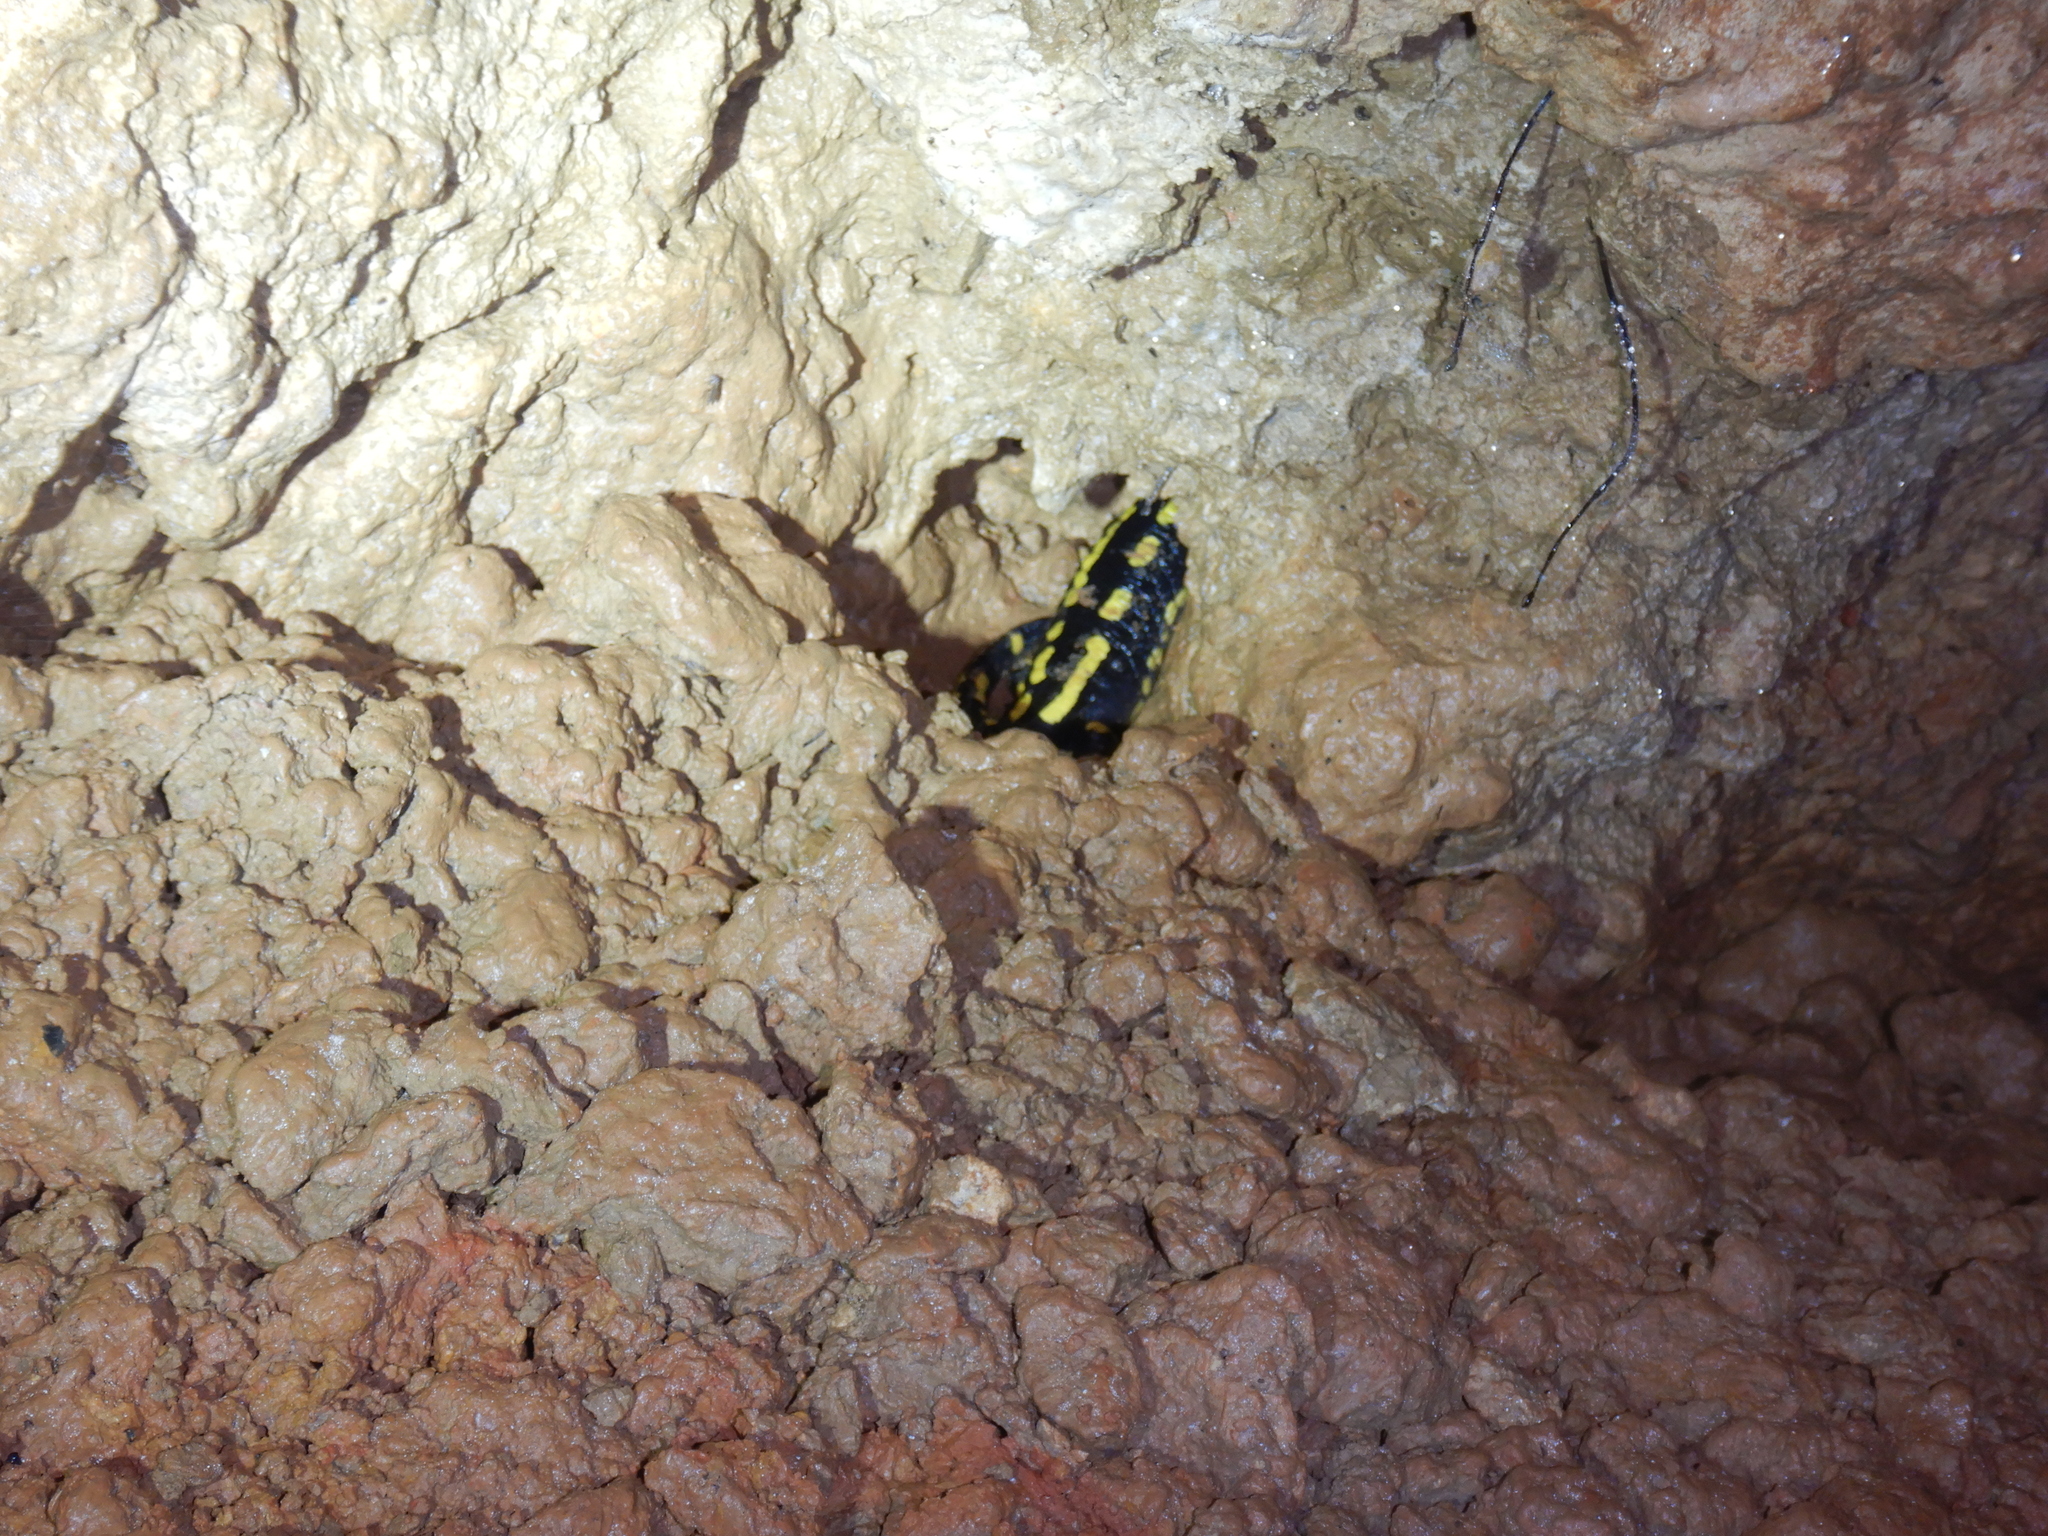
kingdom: Animalia
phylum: Chordata
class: Amphibia
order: Caudata
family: Salamandridae
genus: Salamandra
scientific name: Salamandra salamandra
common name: Fire salamander
